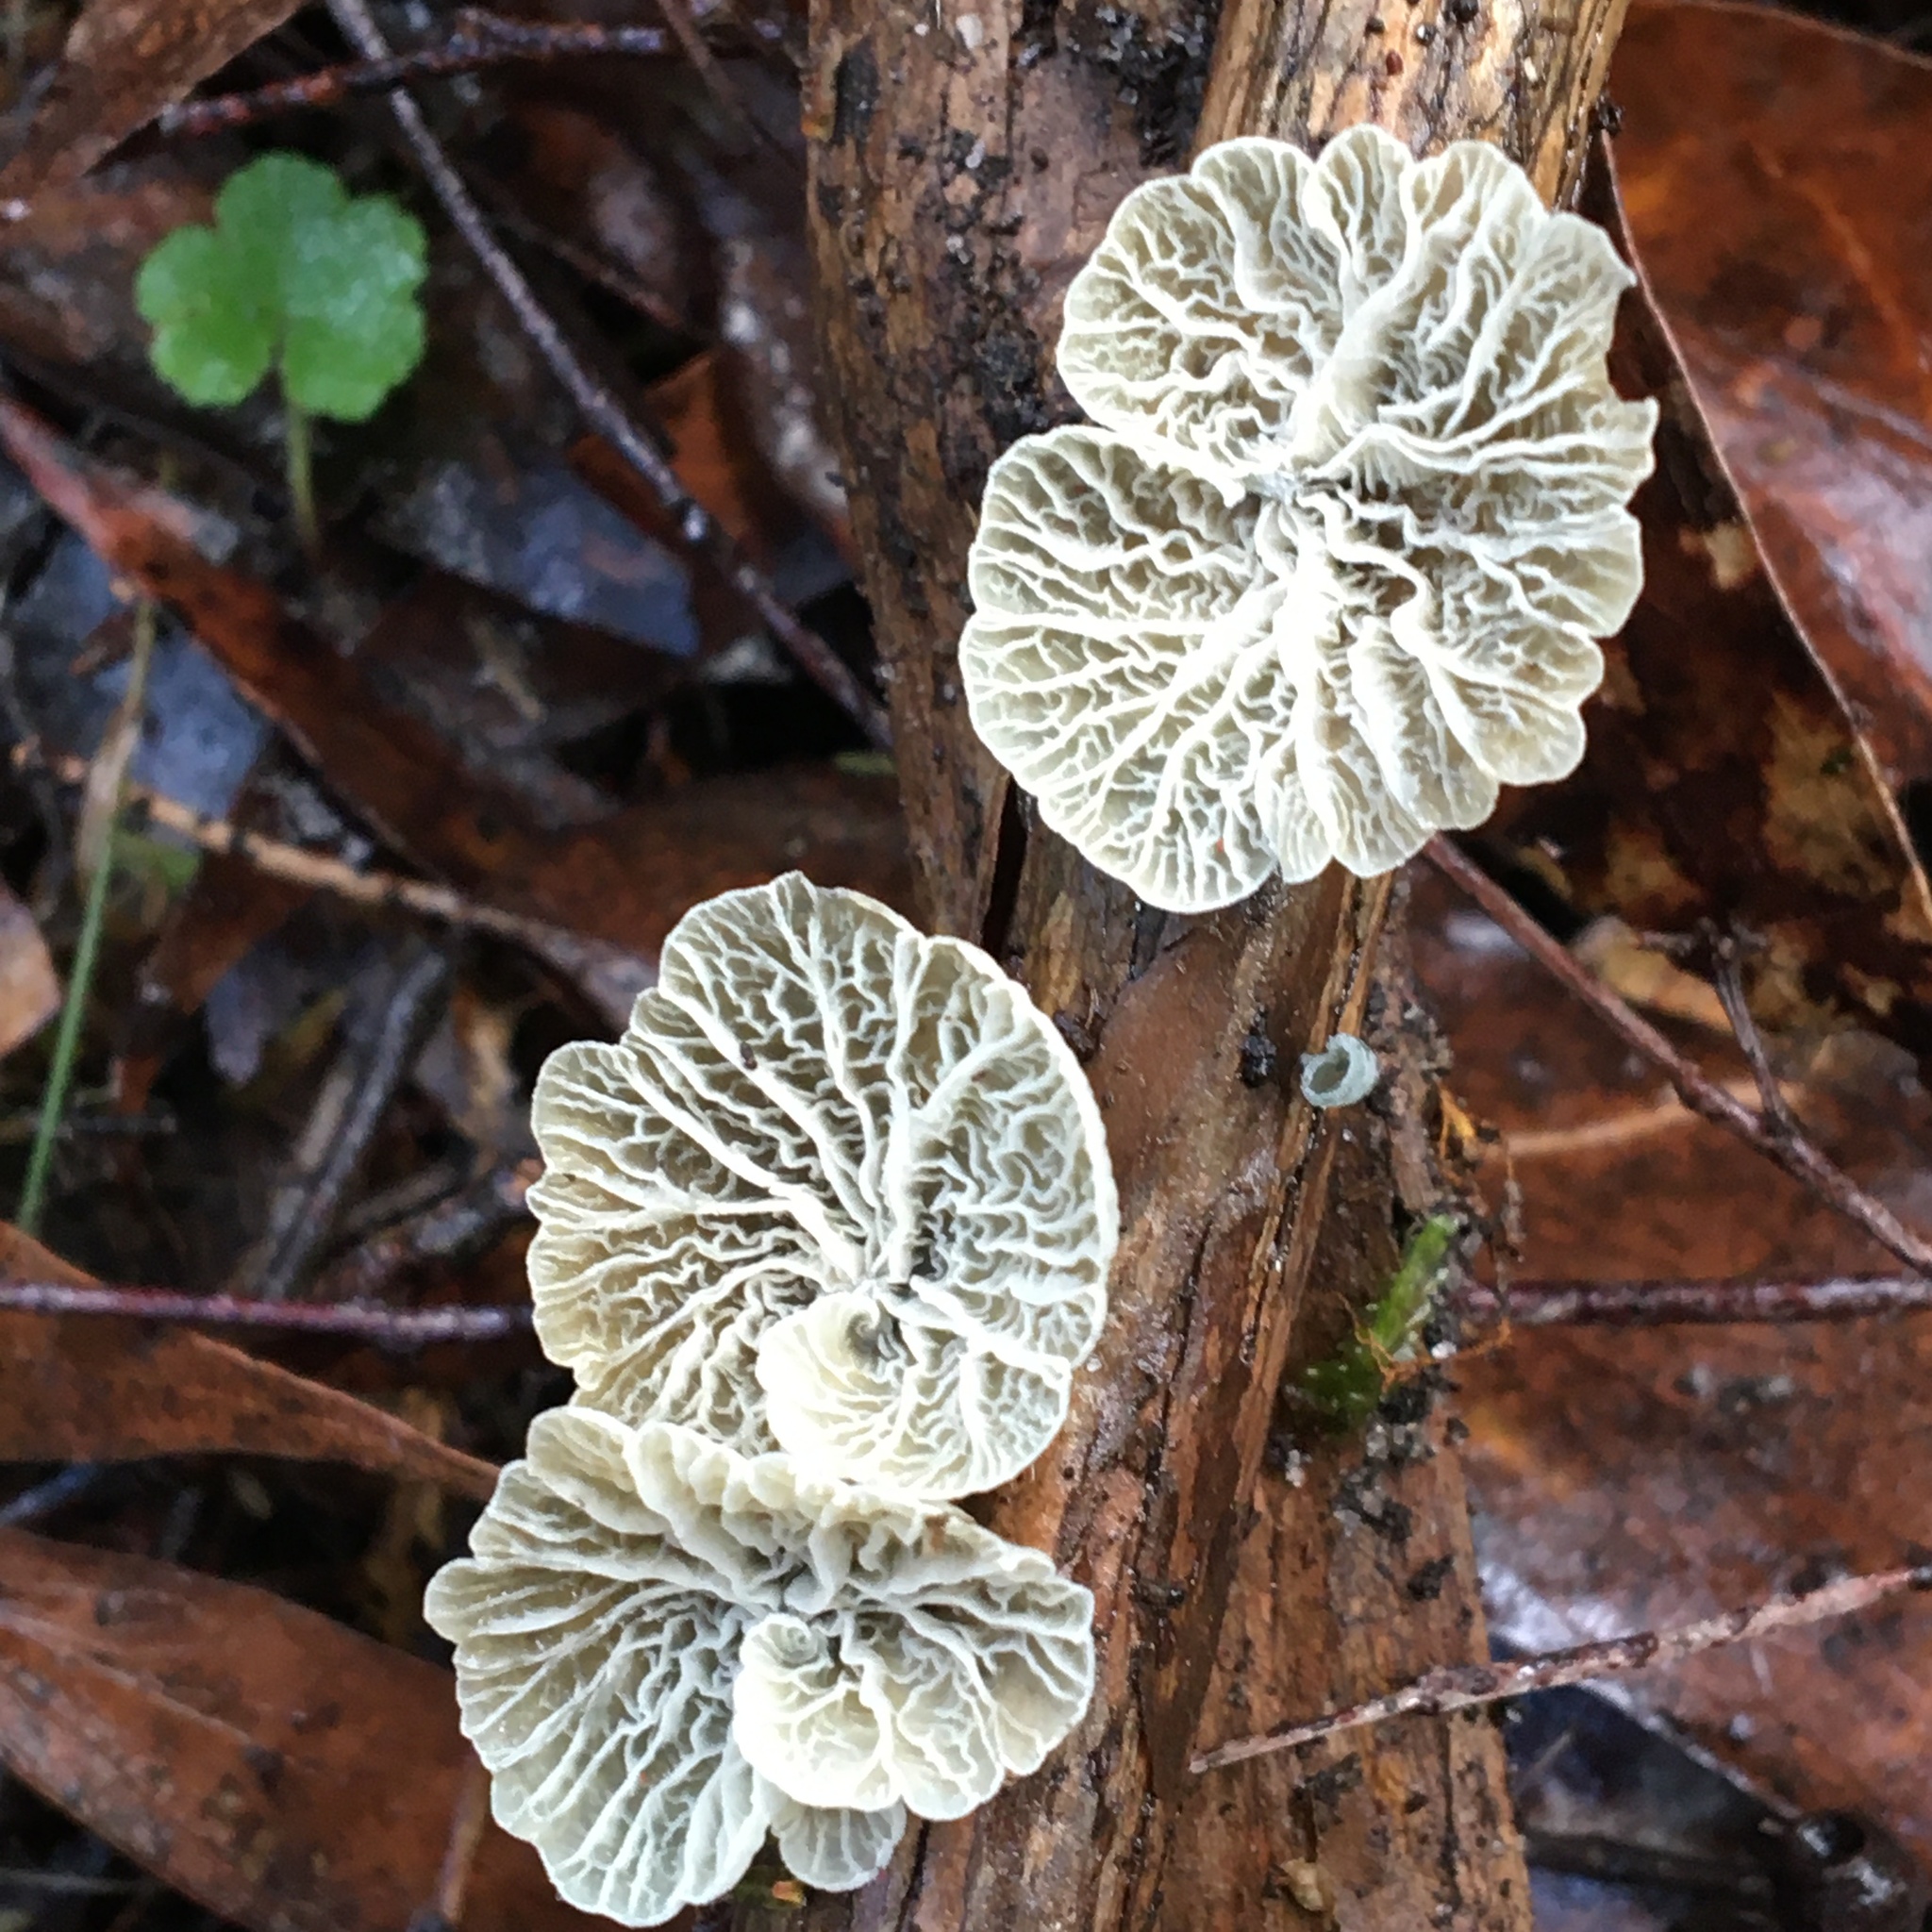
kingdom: Fungi
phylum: Basidiomycota
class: Agaricomycetes
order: Agaricales
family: Marasmiaceae
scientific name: Marasmiaceae
